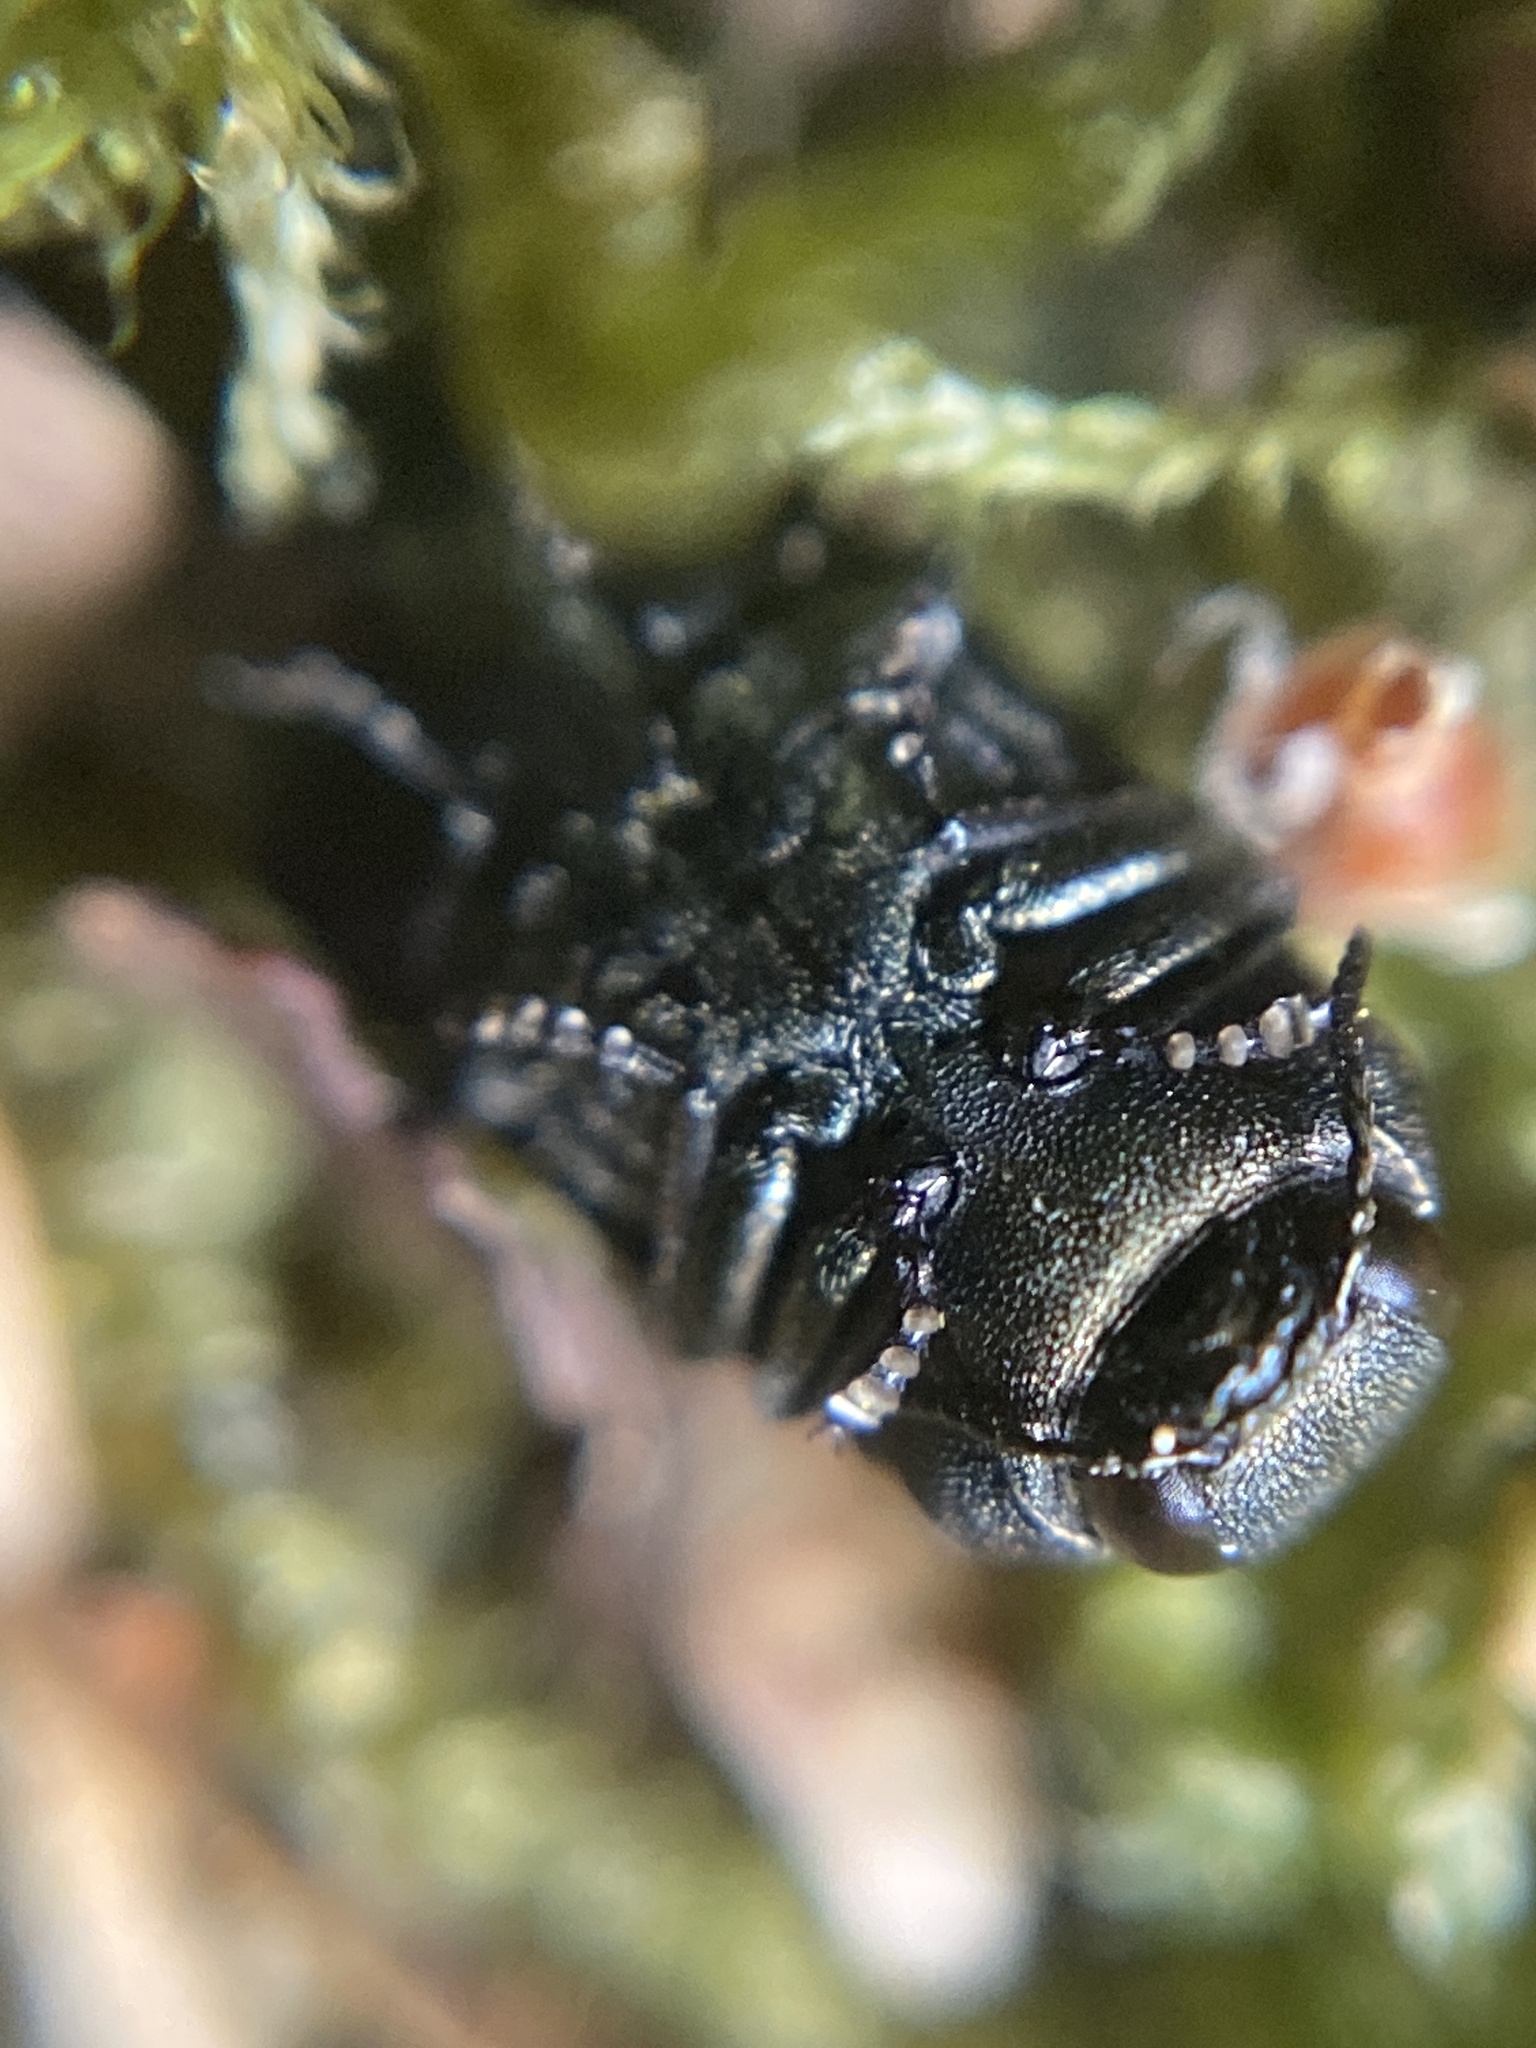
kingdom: Animalia
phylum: Arthropoda
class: Insecta
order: Coleoptera
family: Buprestidae
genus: Anthaxia
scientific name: Anthaxia quadripunctata
